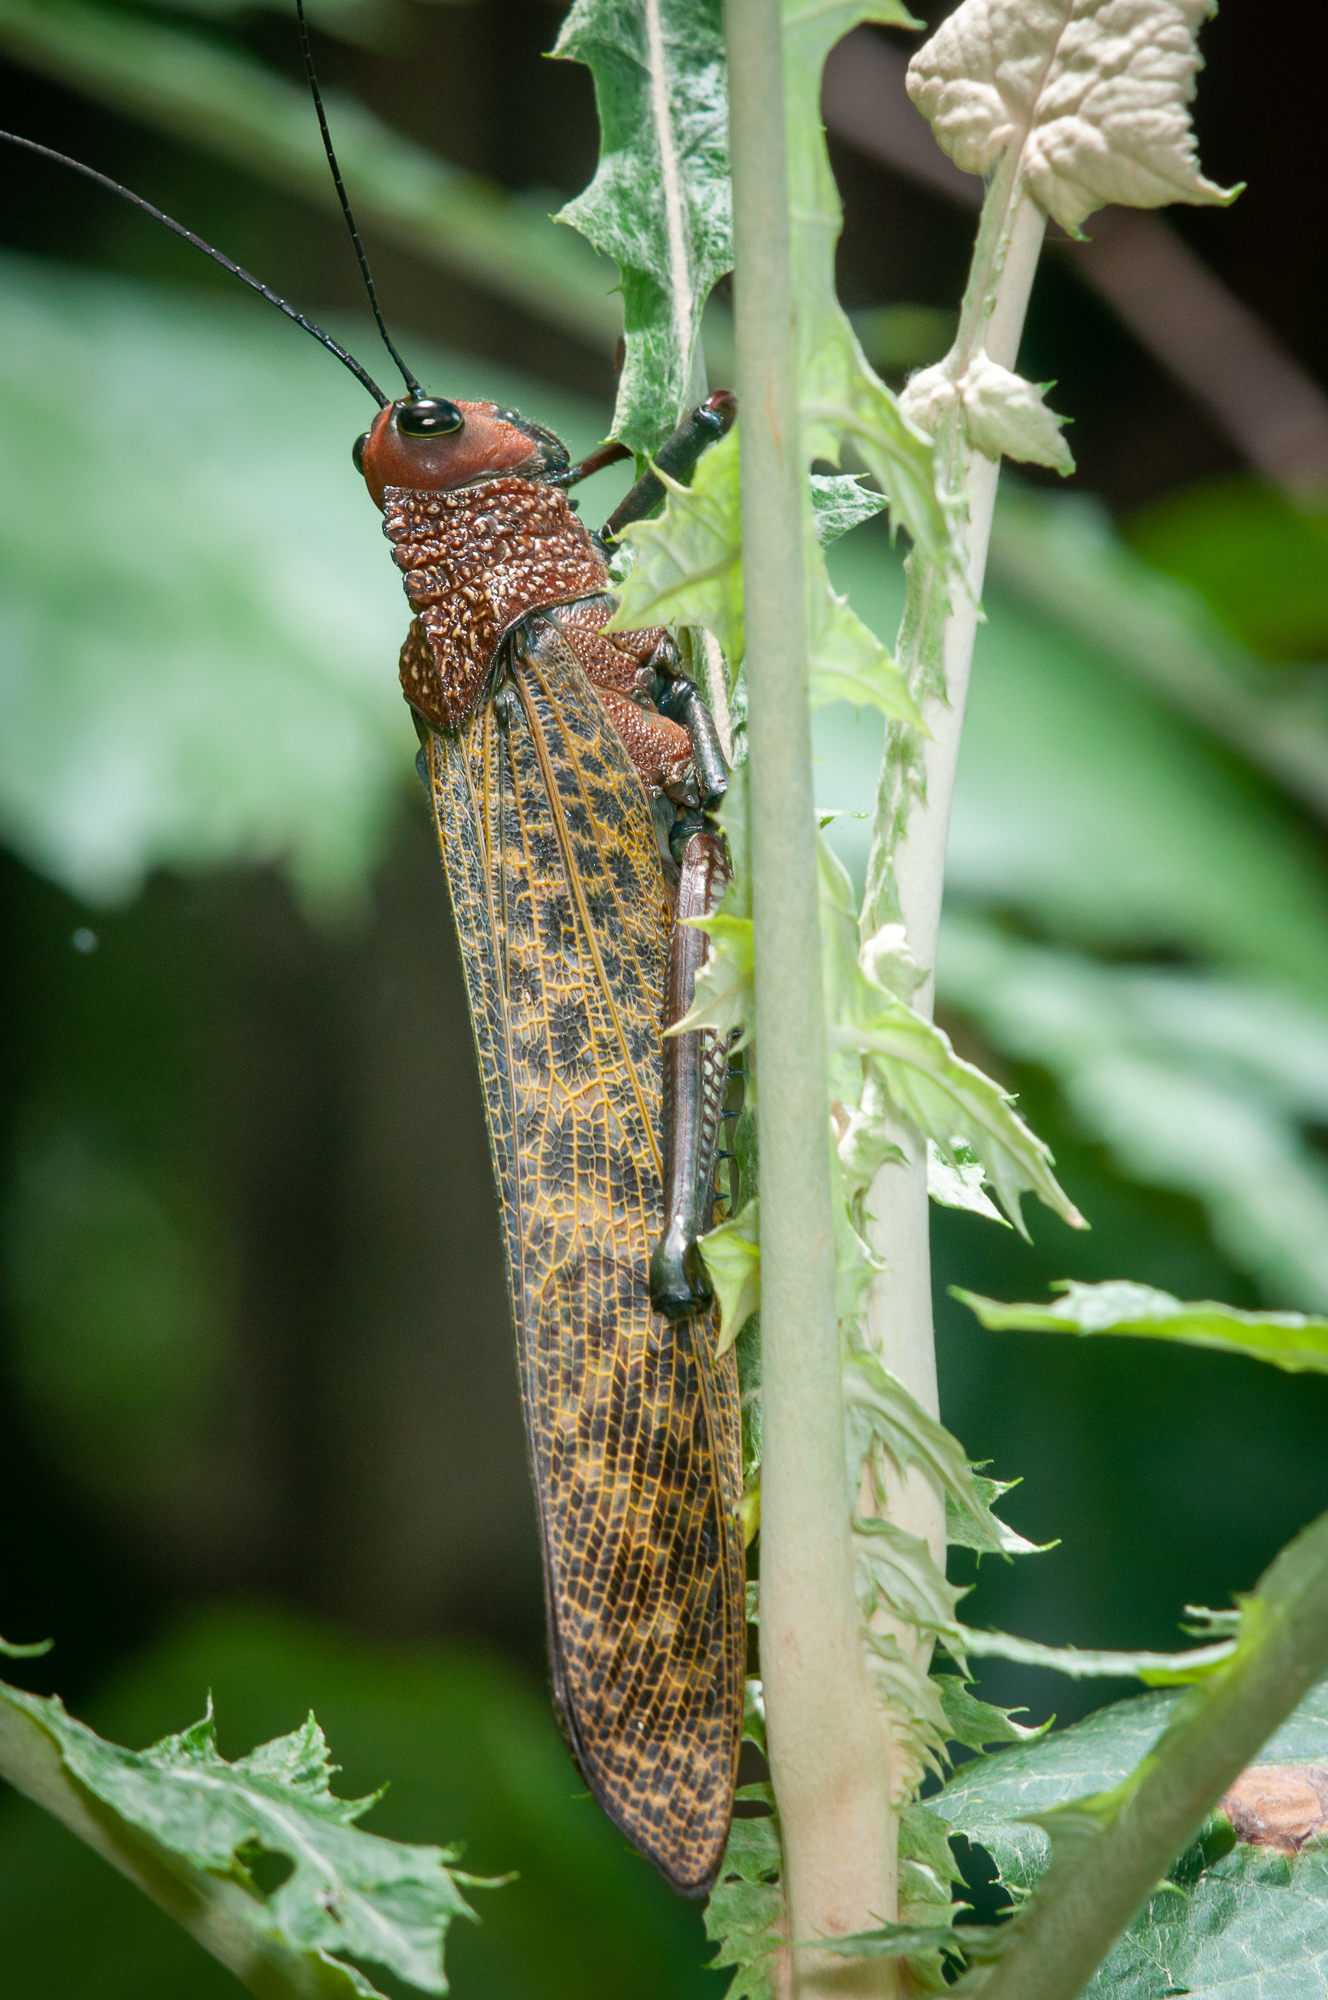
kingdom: Animalia
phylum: Arthropoda
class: Insecta
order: Orthoptera
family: Romaleidae
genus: Tropidacris
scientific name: Tropidacris cristata
